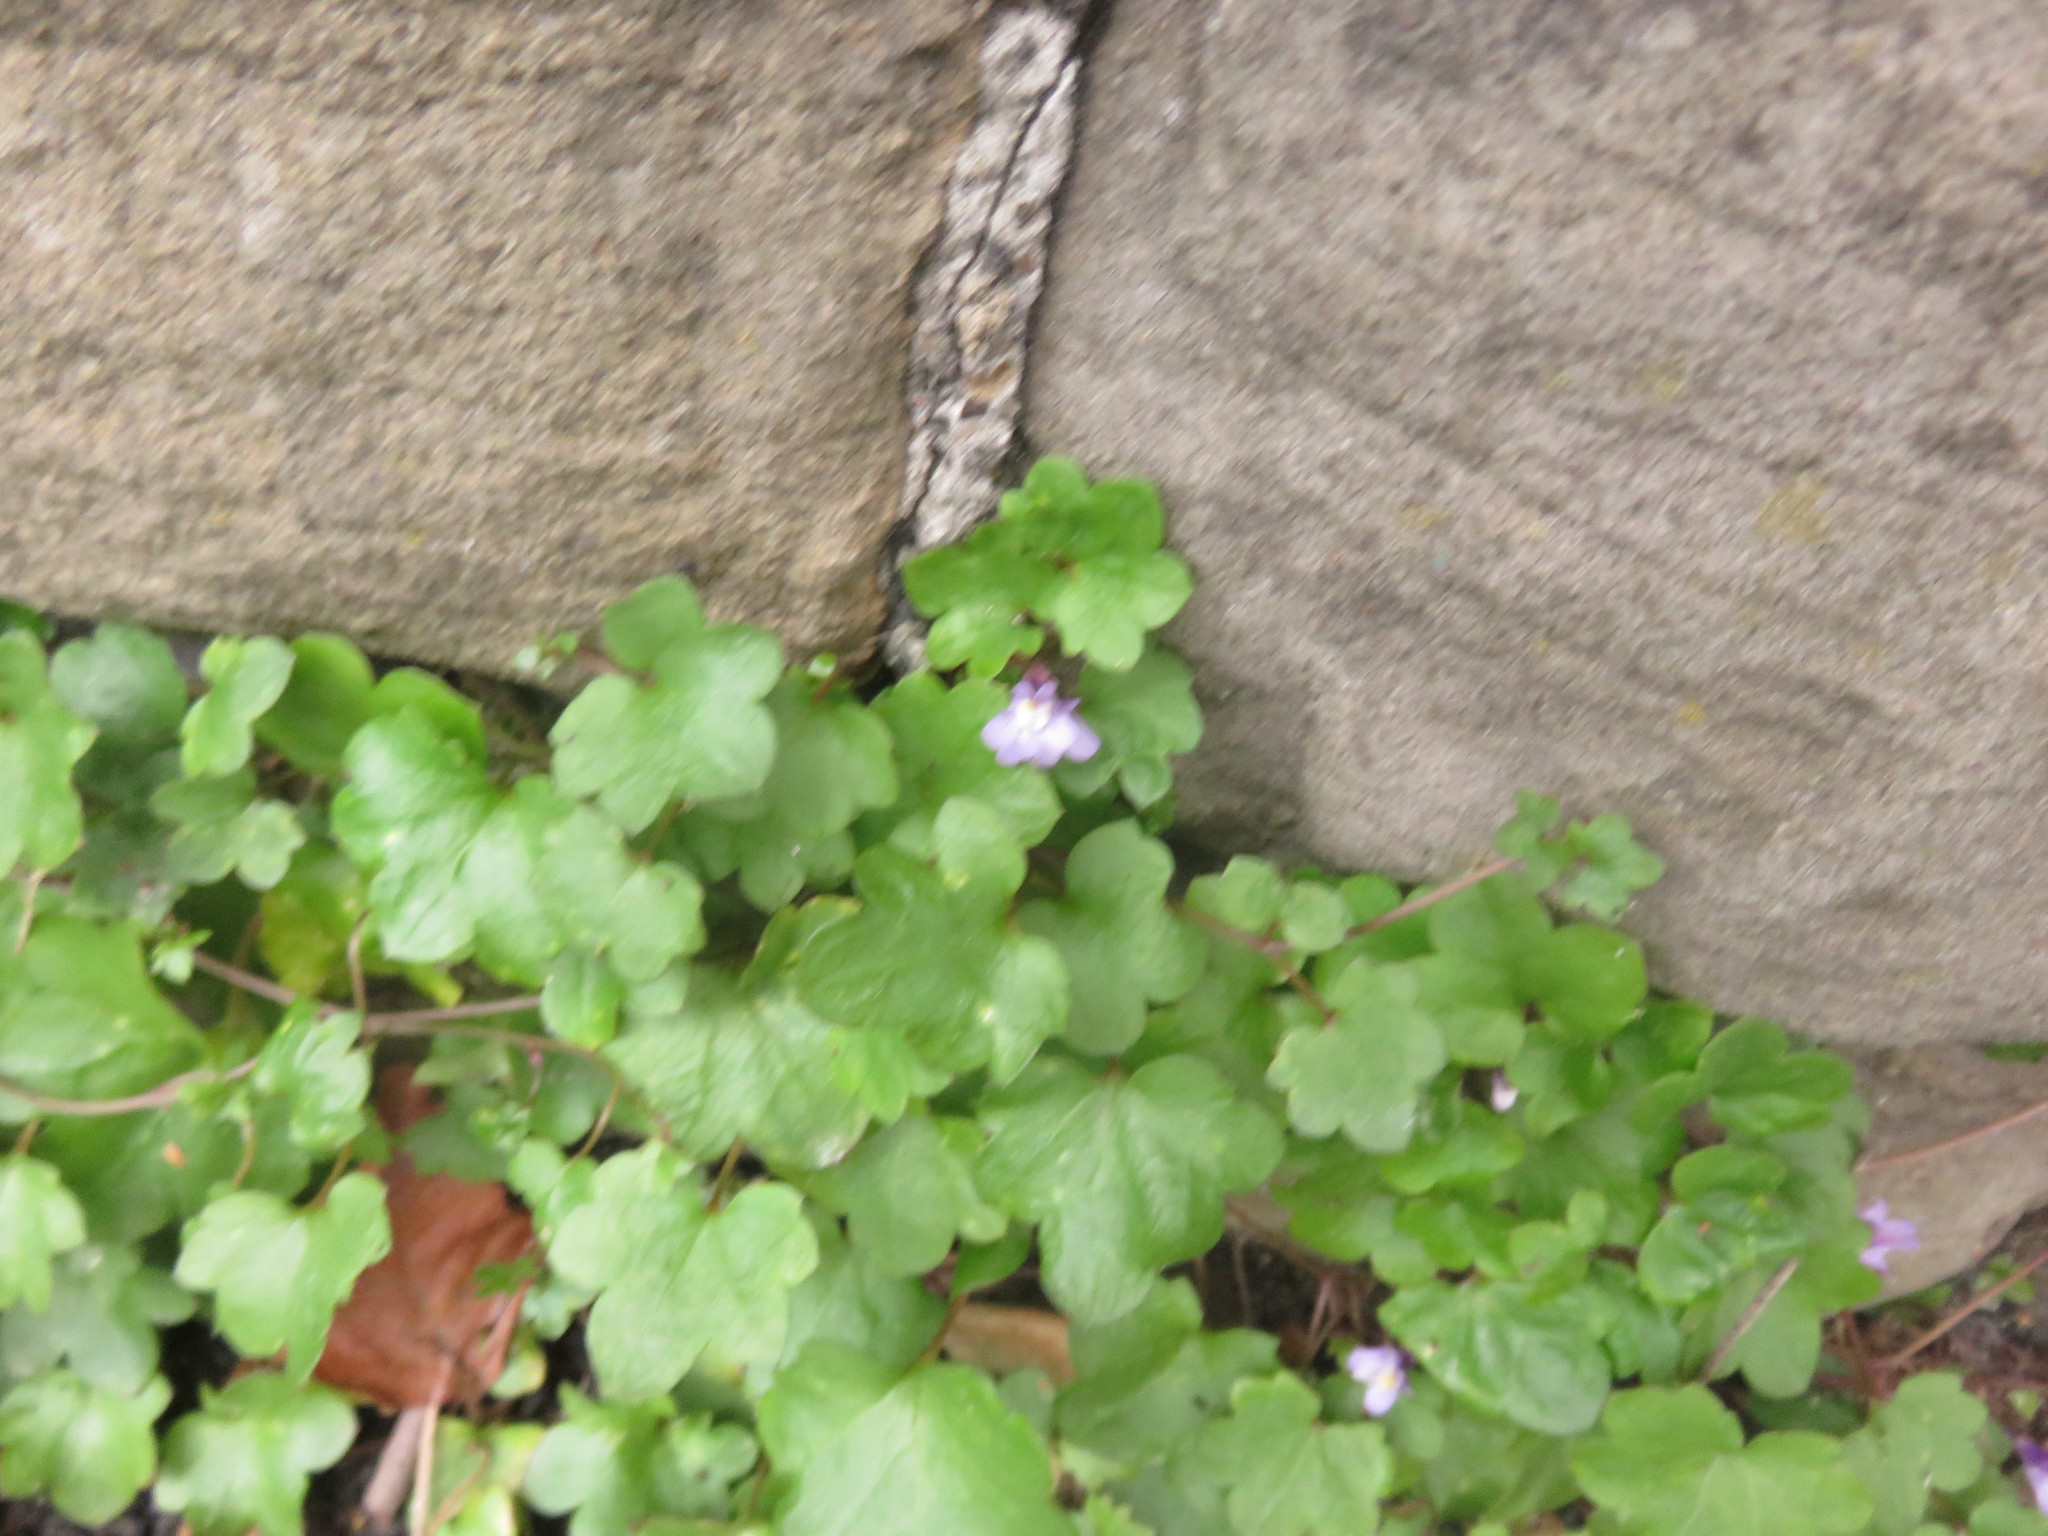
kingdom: Plantae
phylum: Tracheophyta
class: Magnoliopsida
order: Lamiales
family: Plantaginaceae
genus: Cymbalaria
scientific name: Cymbalaria muralis
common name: Ivy-leaved toadflax
